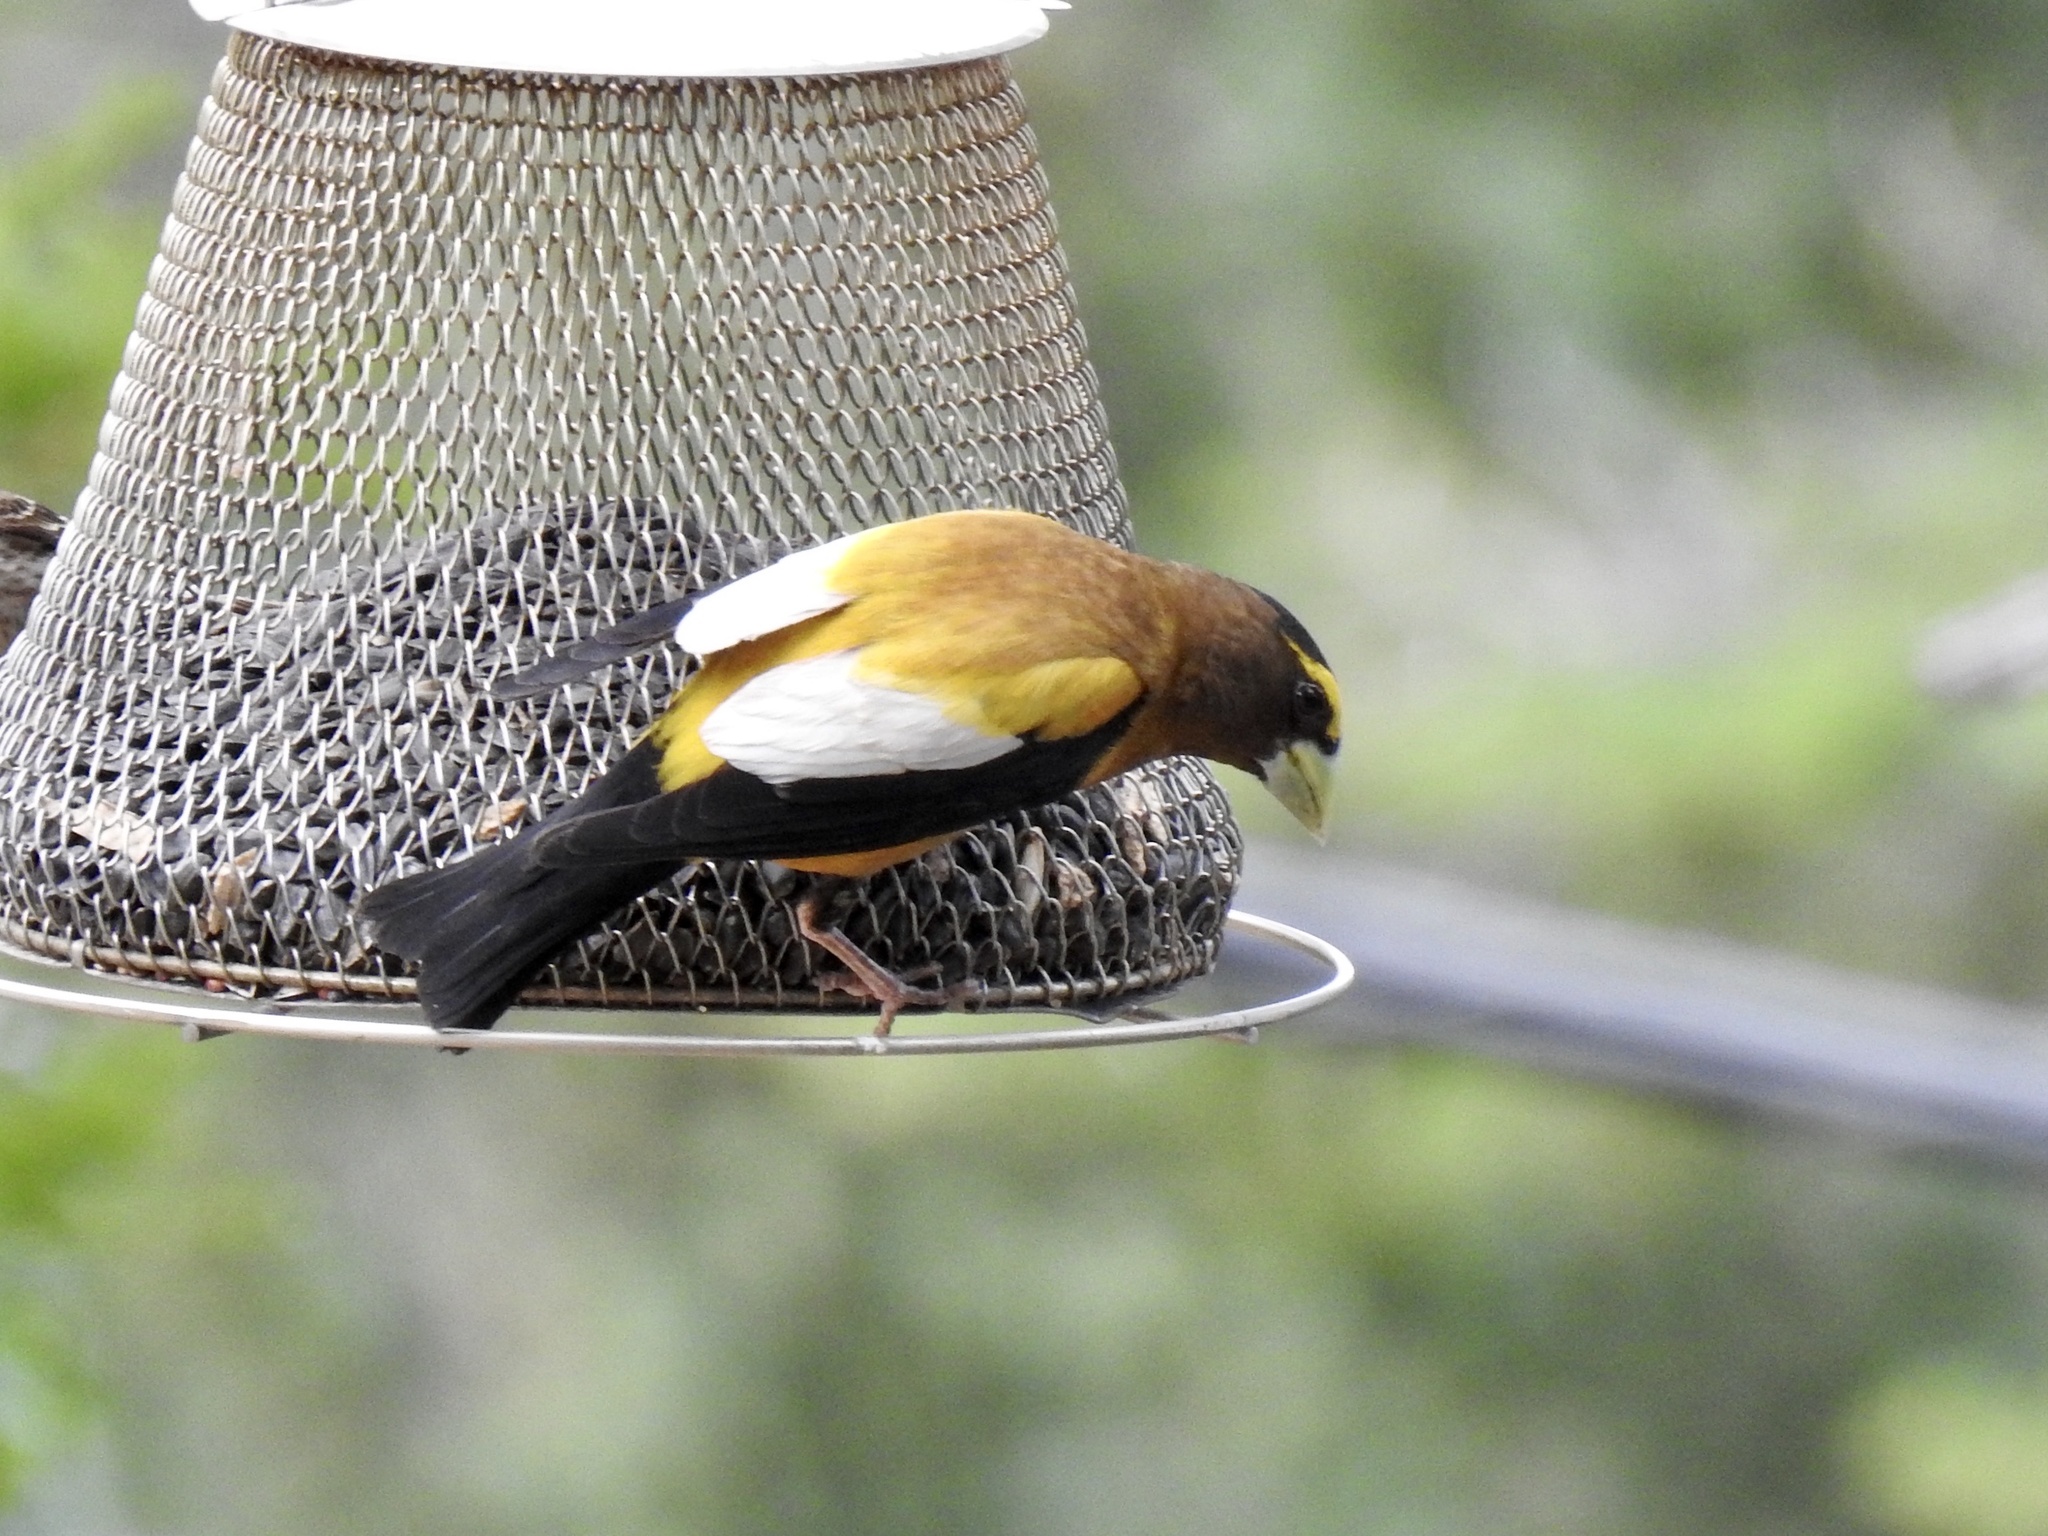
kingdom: Animalia
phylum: Chordata
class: Aves
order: Passeriformes
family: Fringillidae
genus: Hesperiphona
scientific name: Hesperiphona vespertina
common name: Evening grosbeak
